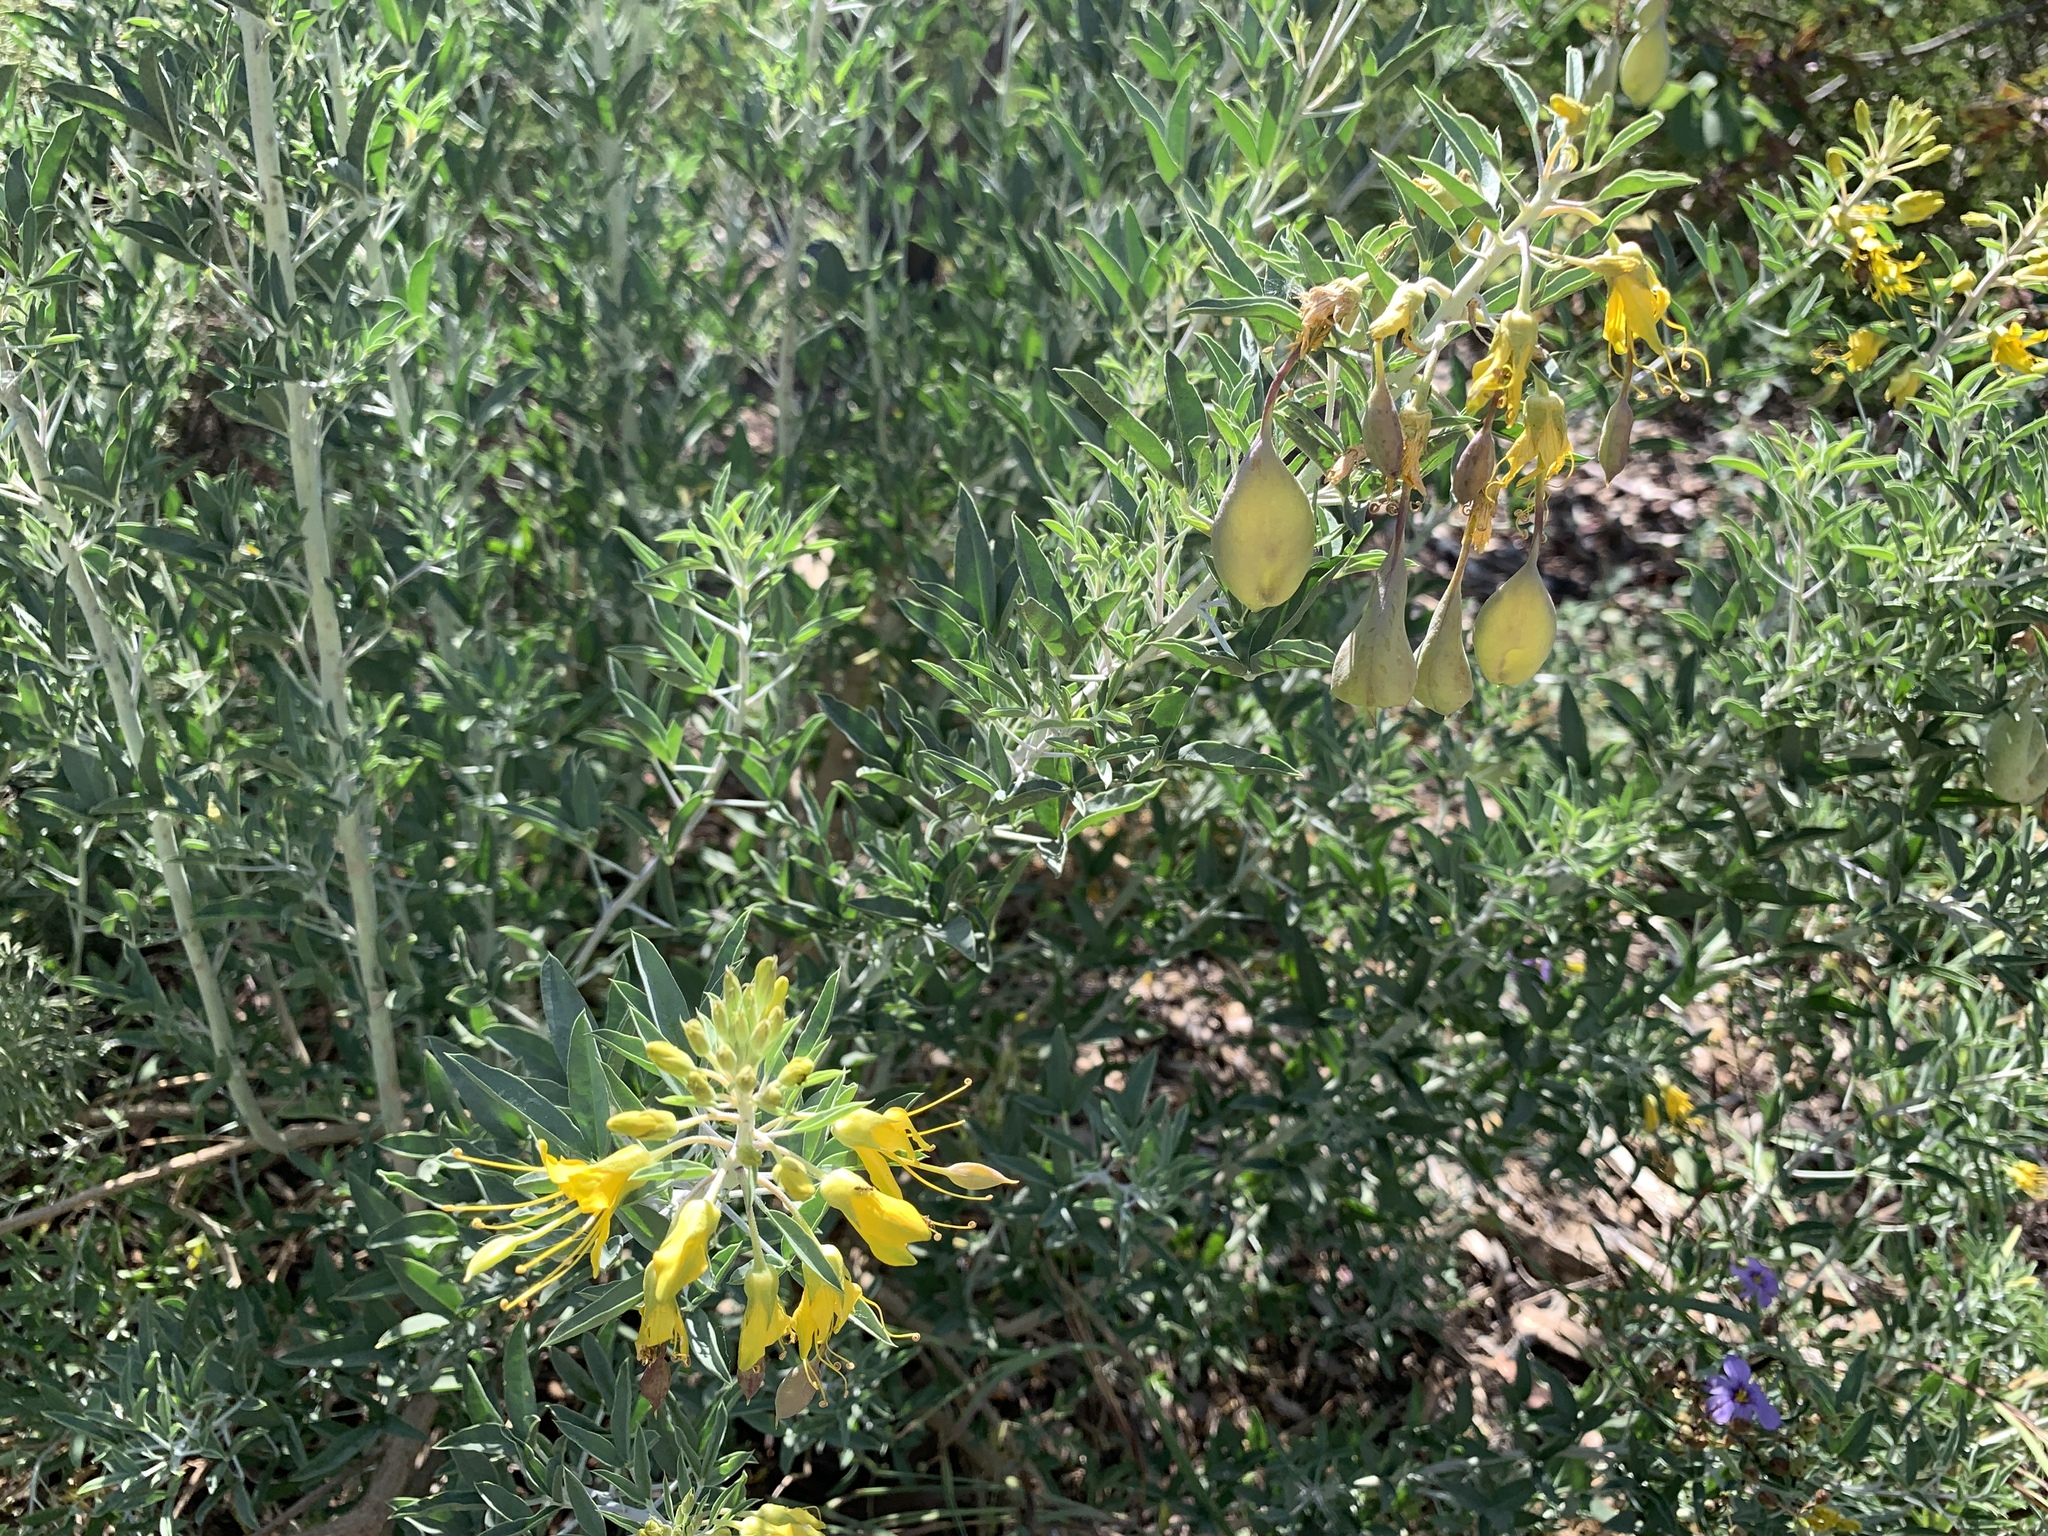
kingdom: Plantae
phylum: Tracheophyta
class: Magnoliopsida
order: Brassicales
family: Cleomaceae
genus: Cleomella
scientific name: Cleomella arborea
